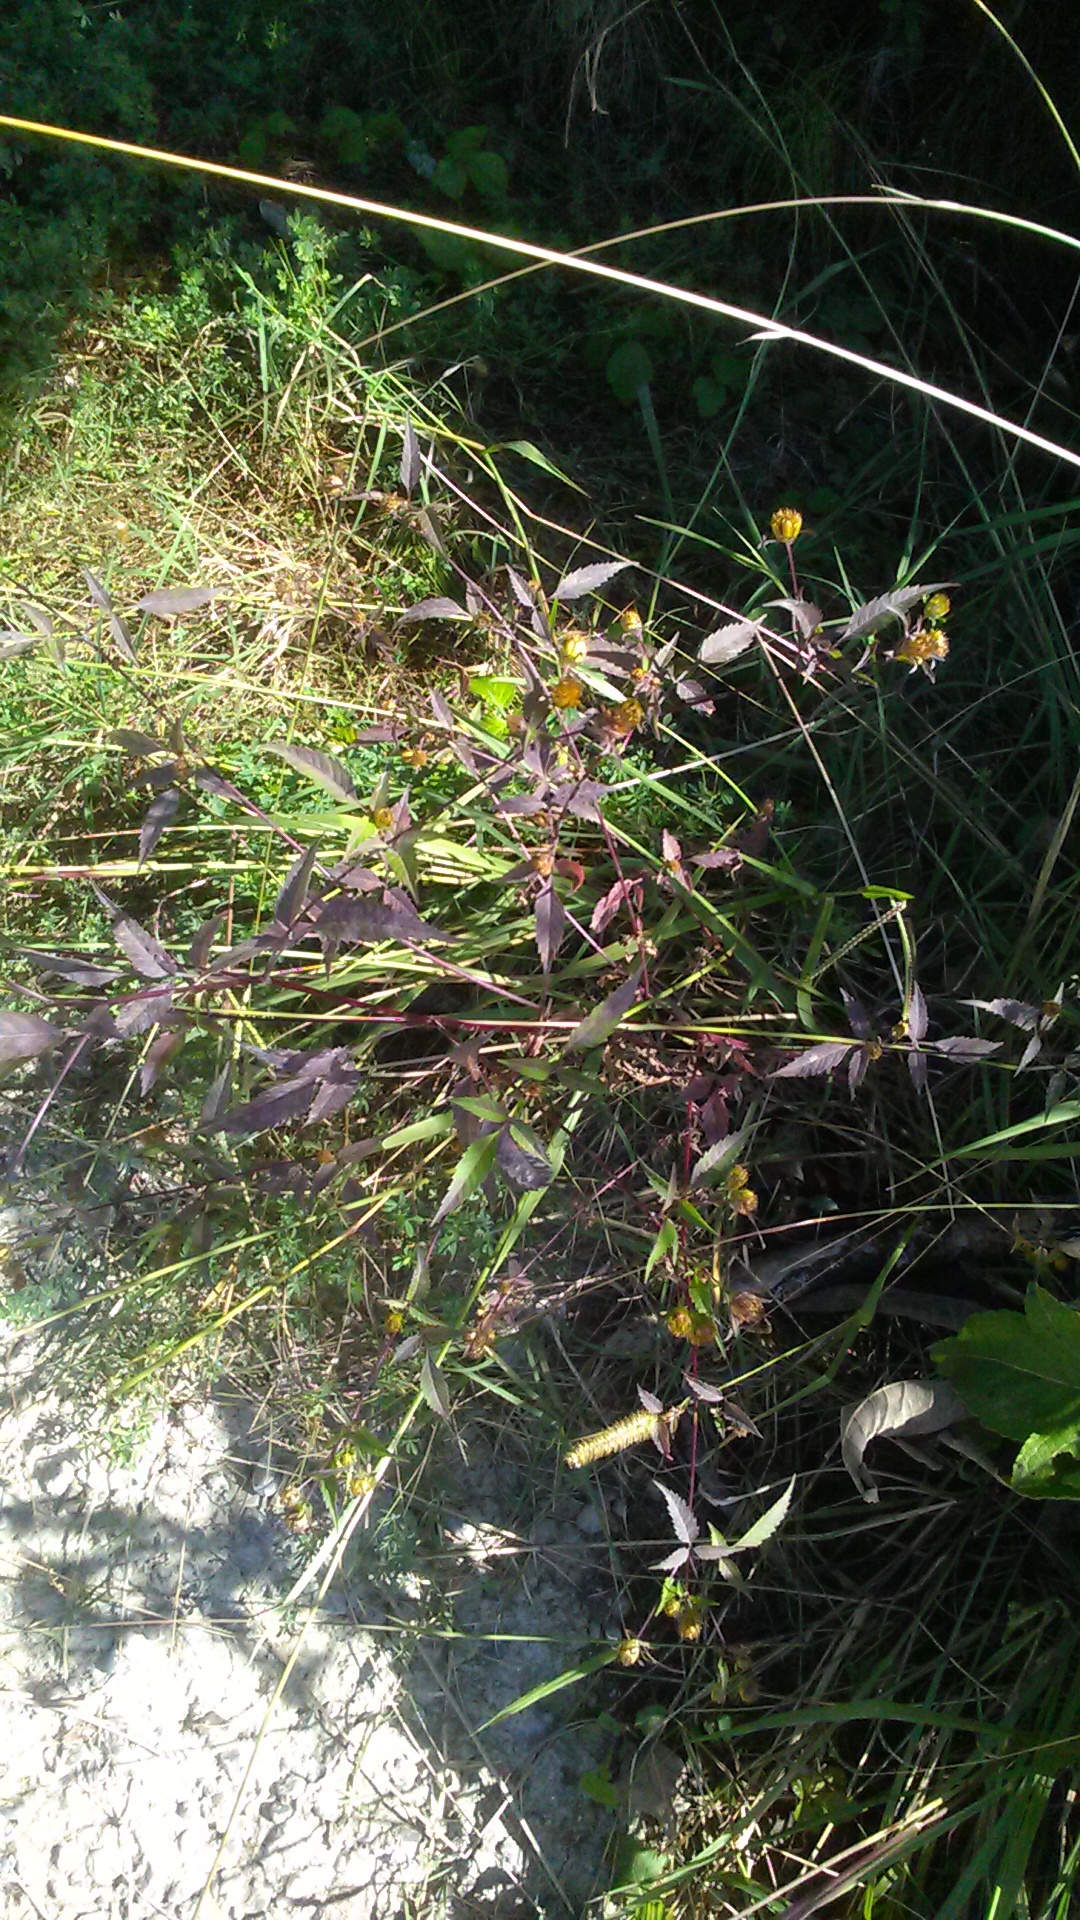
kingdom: Plantae
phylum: Tracheophyta
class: Magnoliopsida
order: Asterales
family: Asteraceae
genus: Bidens
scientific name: Bidens frondosa
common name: Beggarticks
